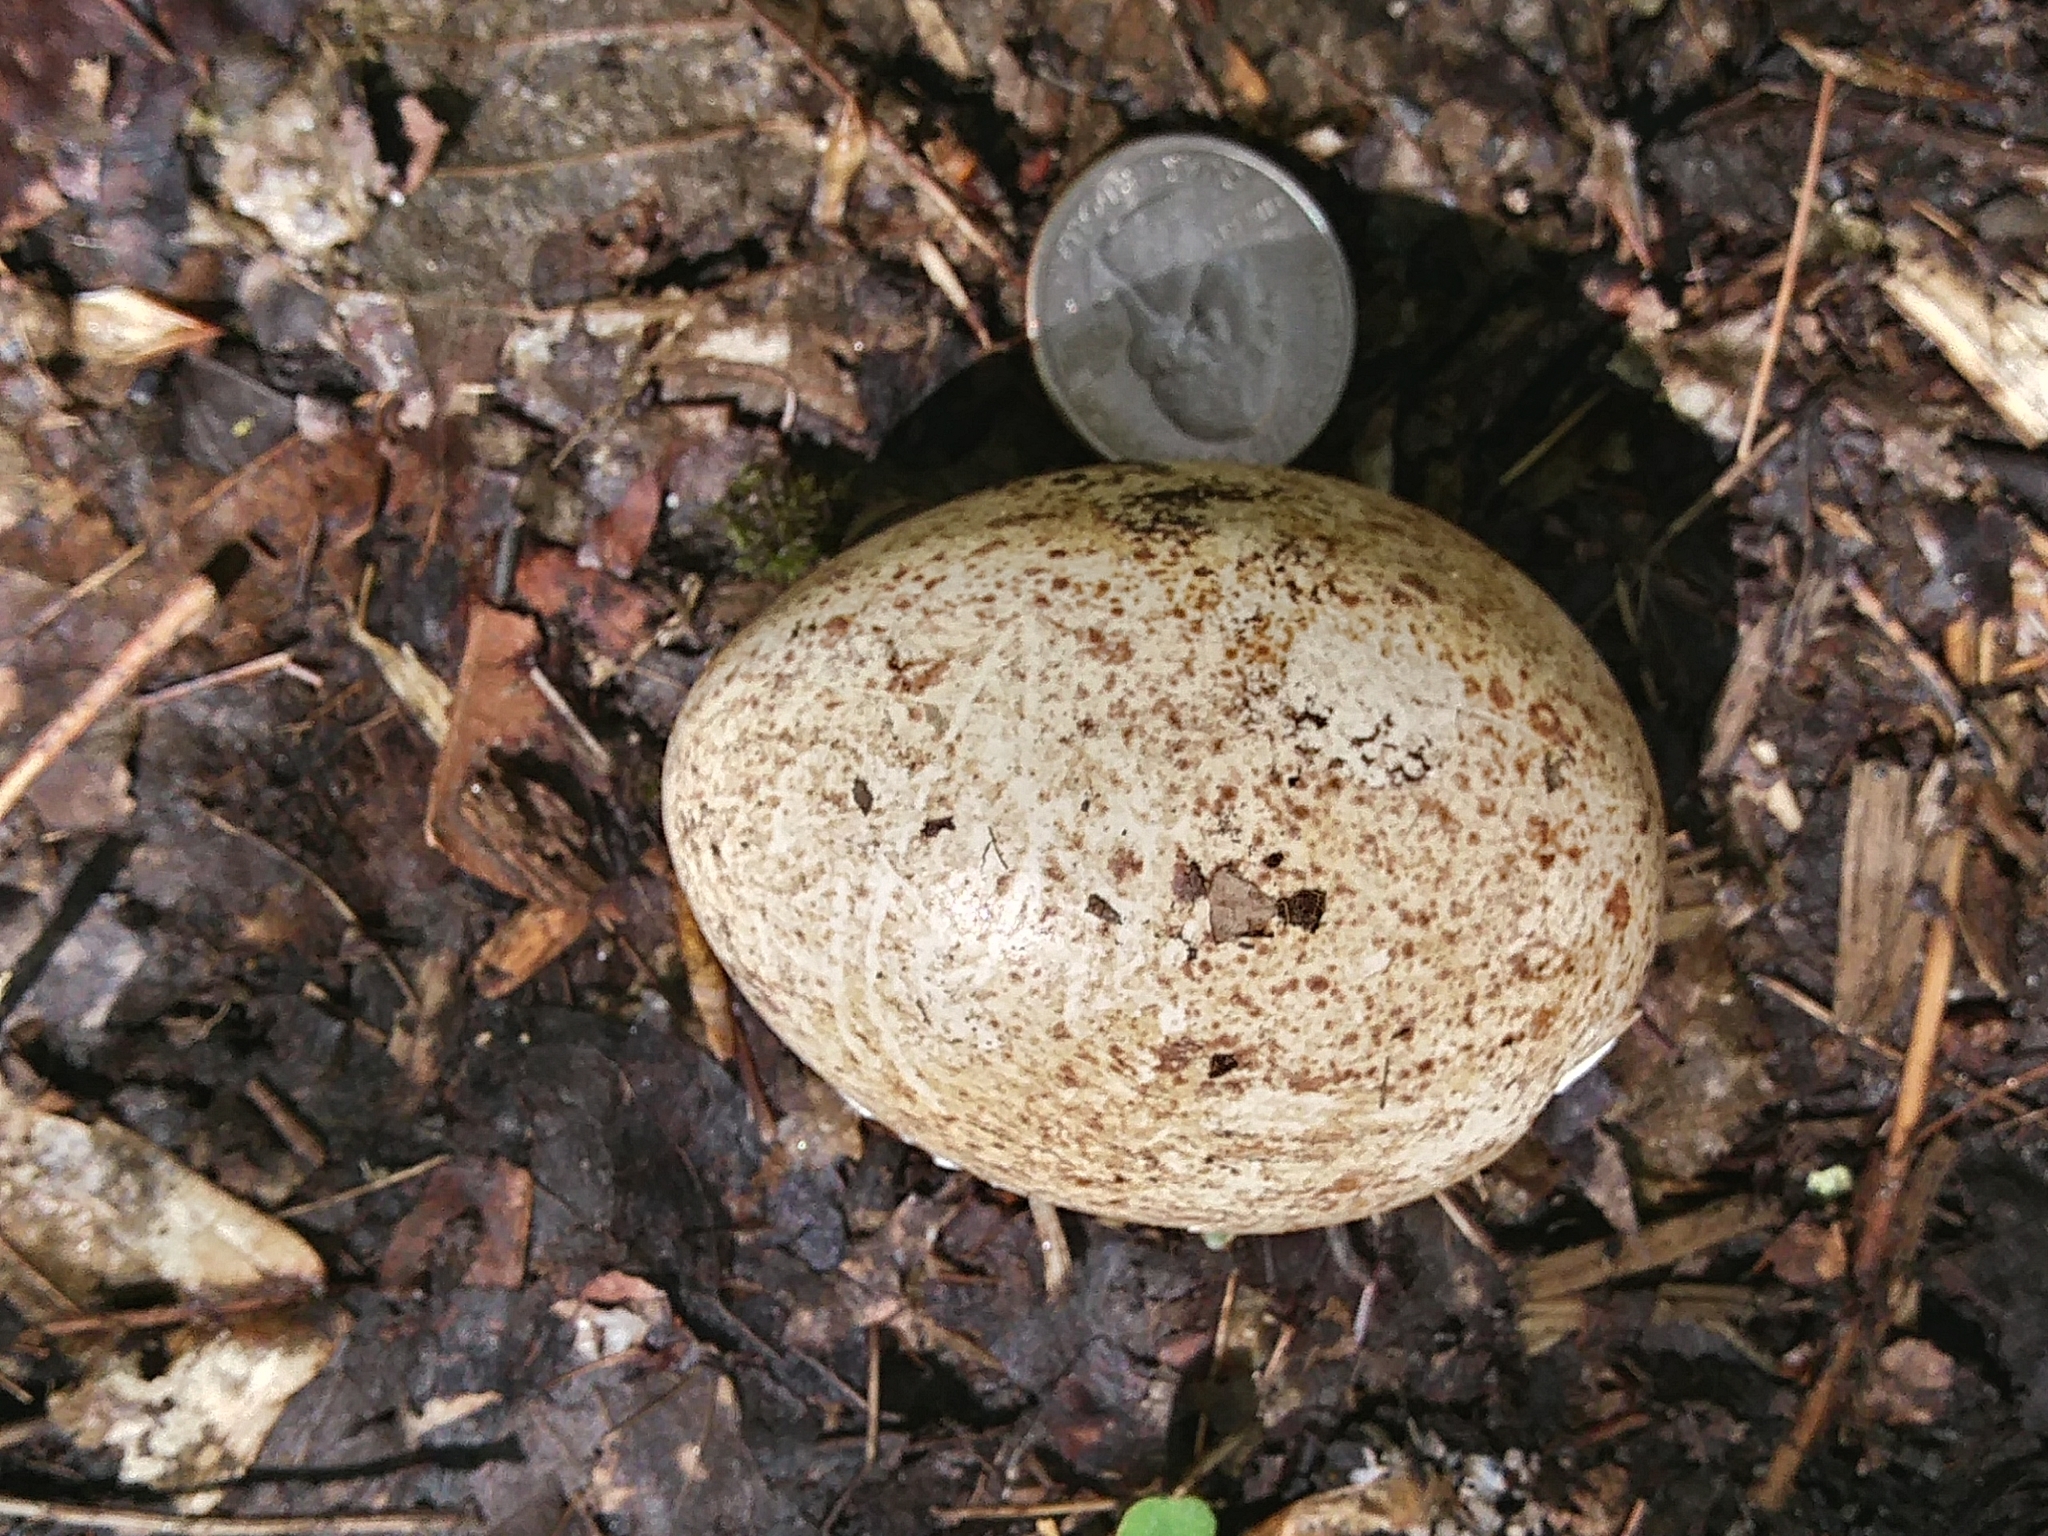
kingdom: Animalia
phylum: Chordata
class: Aves
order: Galliformes
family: Phasianidae
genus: Meleagris
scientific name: Meleagris gallopavo
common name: Wild turkey
